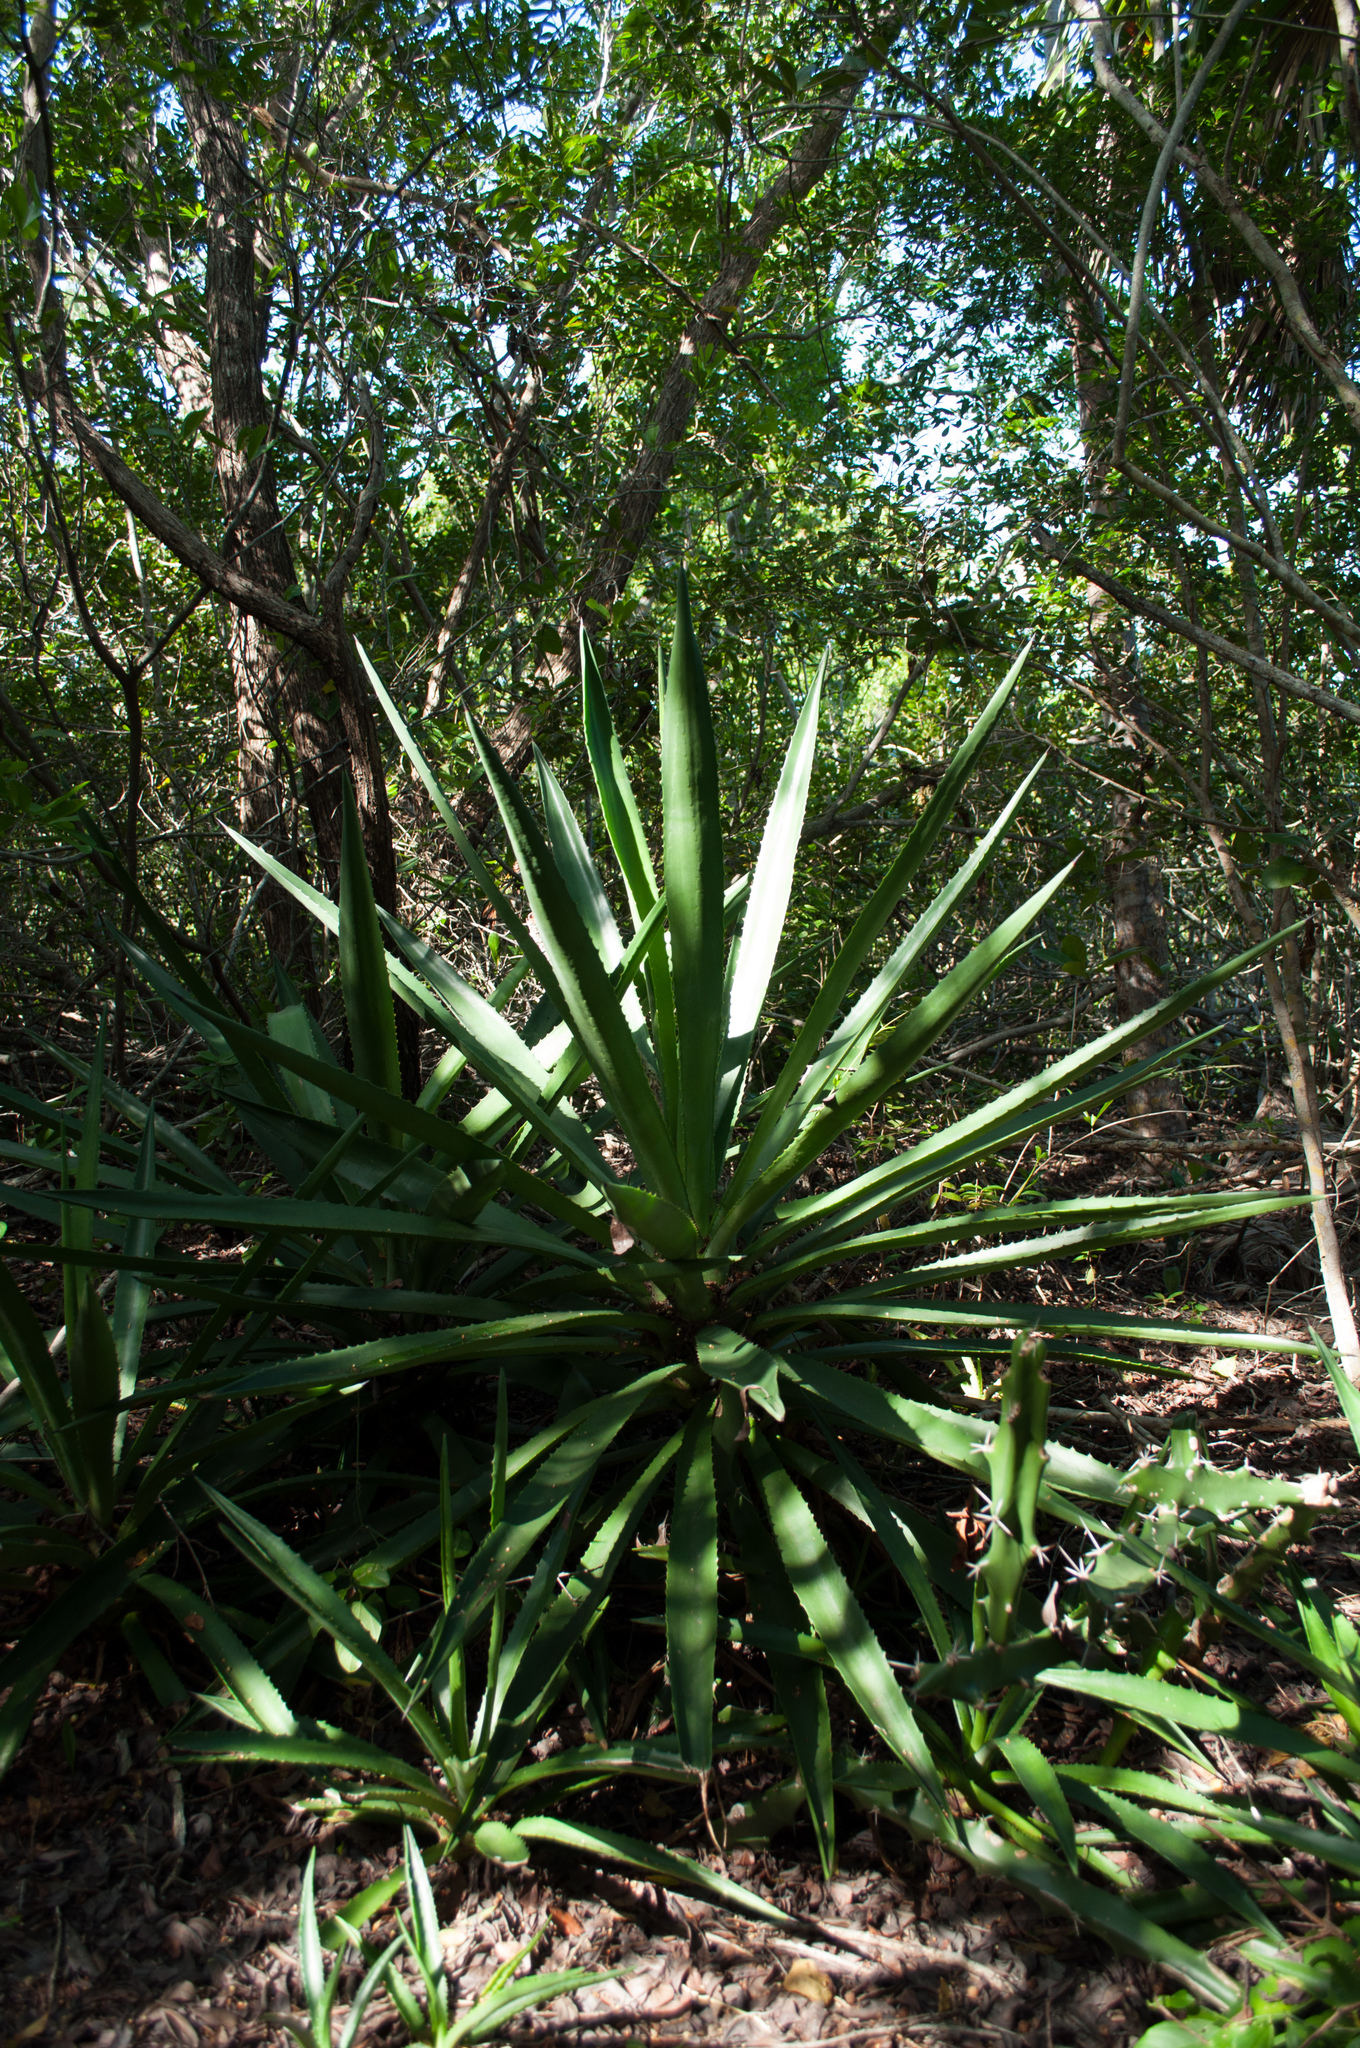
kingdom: Plantae
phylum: Tracheophyta
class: Liliopsida
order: Asparagales
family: Asparagaceae
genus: Agave
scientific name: Agave decipiens
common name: False sisal
